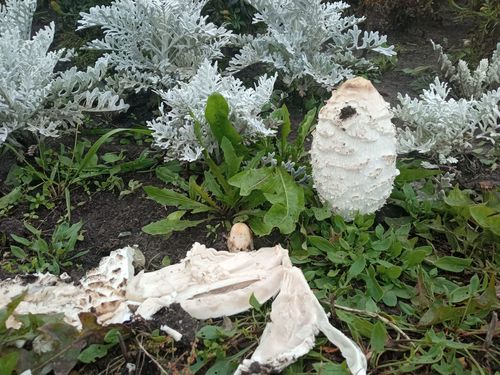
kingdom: Fungi
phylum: Basidiomycota
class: Agaricomycetes
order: Agaricales
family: Agaricaceae
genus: Coprinus
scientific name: Coprinus comatus
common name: Lawyer's wig
